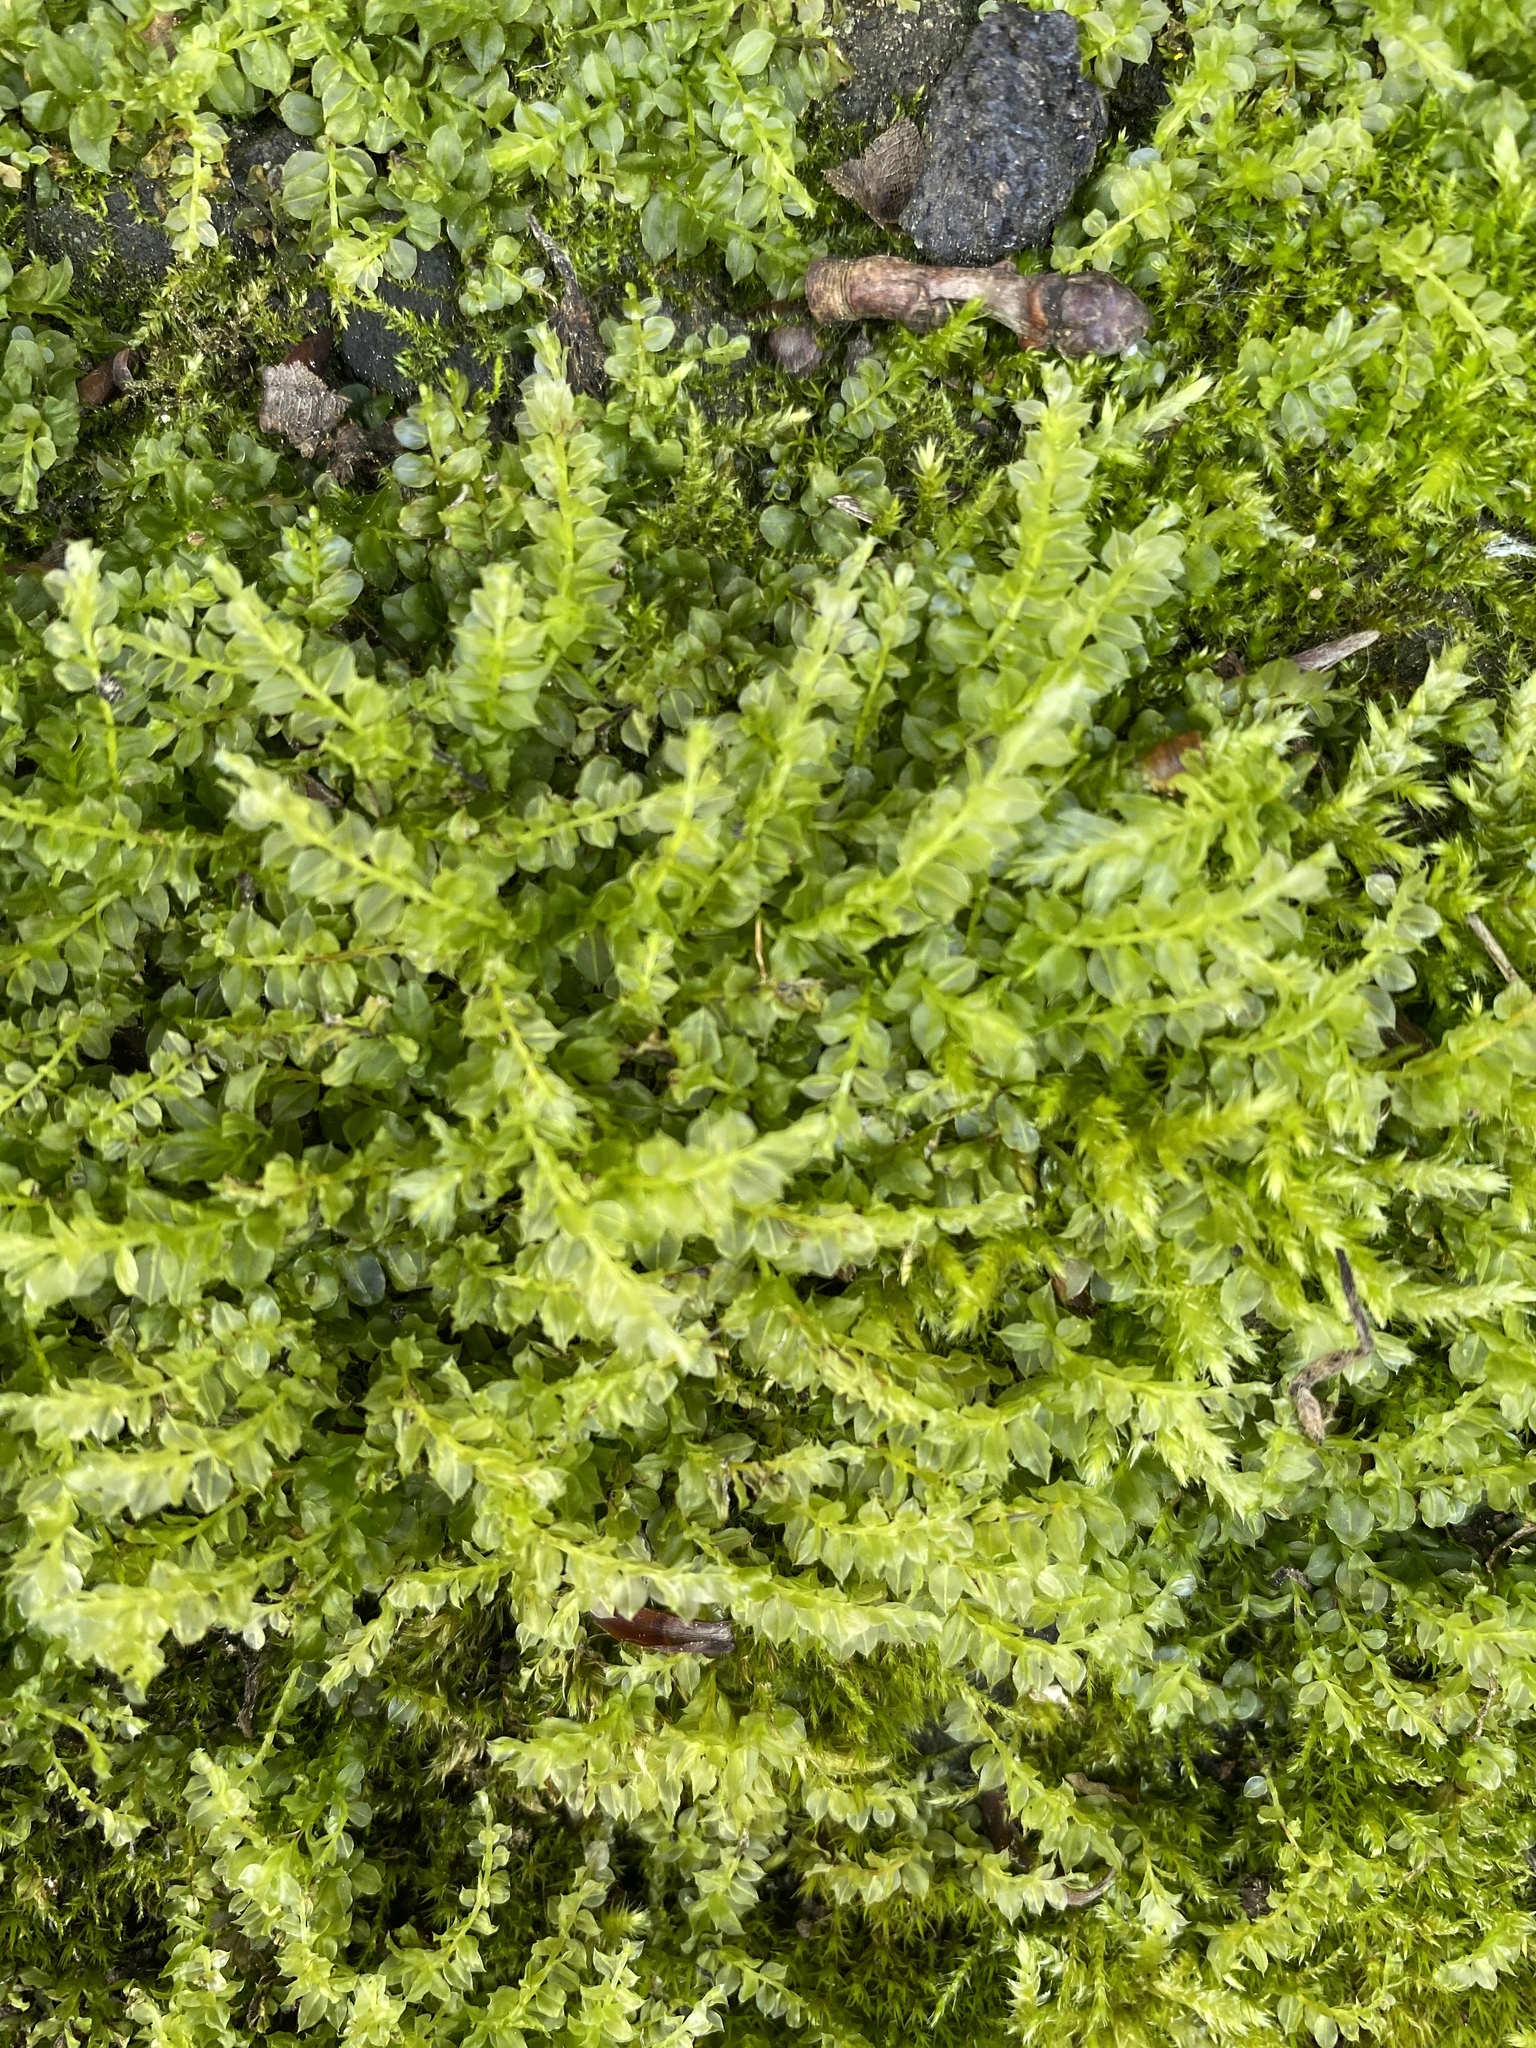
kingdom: Plantae
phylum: Bryophyta
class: Bryopsida
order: Bryales
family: Mniaceae
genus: Plagiomnium
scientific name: Plagiomnium cuspidatum
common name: Woodsy leafy moss
